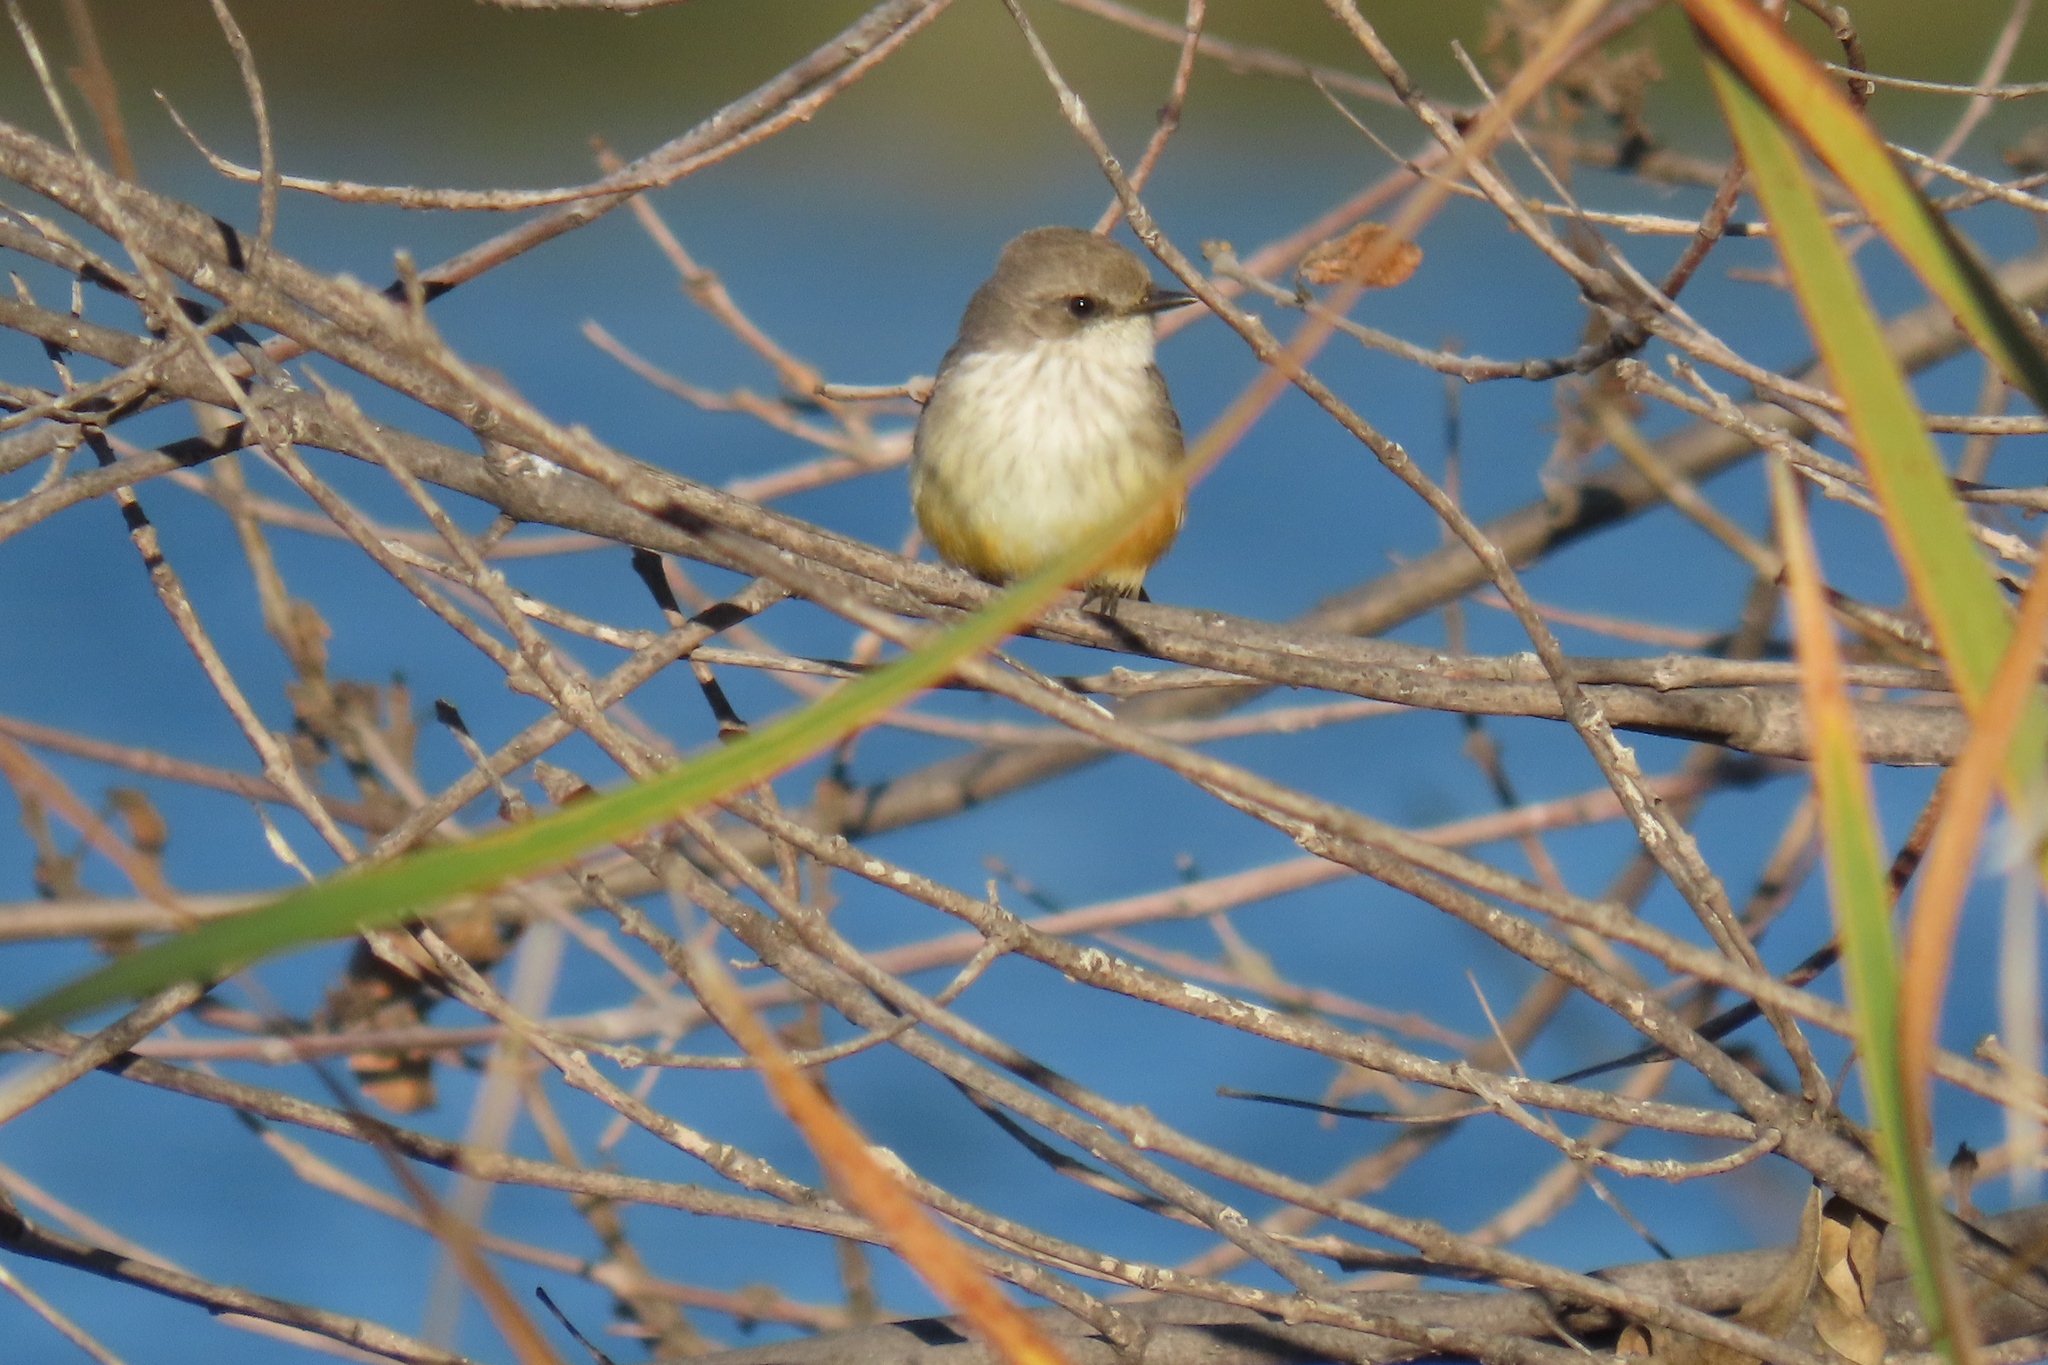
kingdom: Animalia
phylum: Chordata
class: Aves
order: Passeriformes
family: Tyrannidae
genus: Pyrocephalus
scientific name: Pyrocephalus rubinus
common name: Vermilion flycatcher
